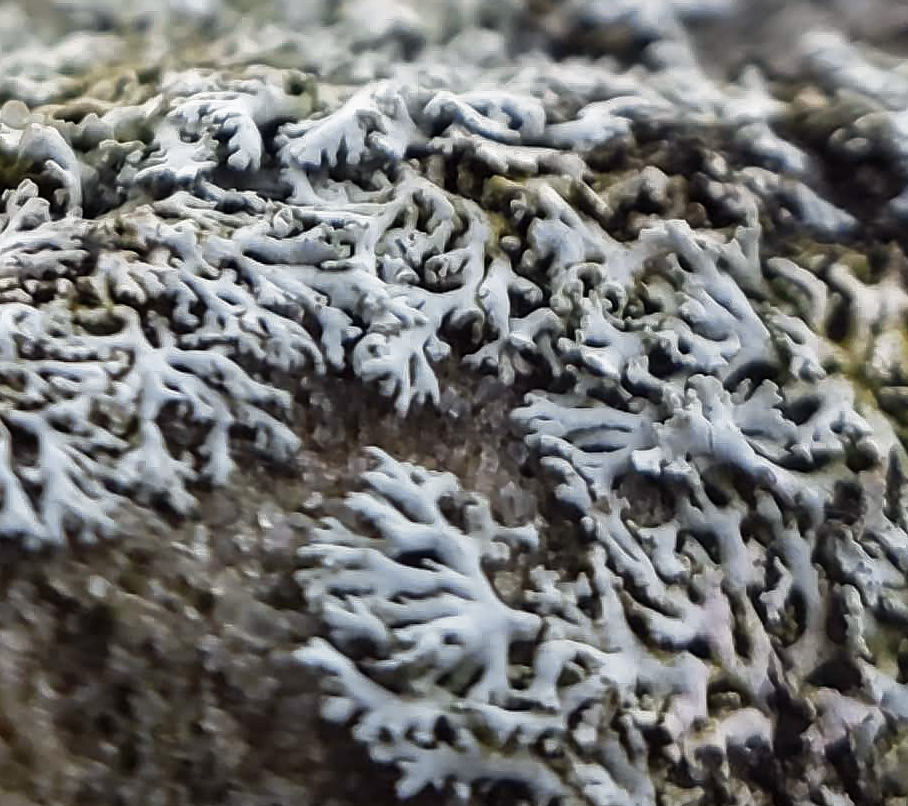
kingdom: Fungi
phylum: Ascomycota
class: Lecanoromycetes
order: Caliciales
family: Physciaceae
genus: Physcia
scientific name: Physcia thomsoniana
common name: Thomson's rosette lichen
